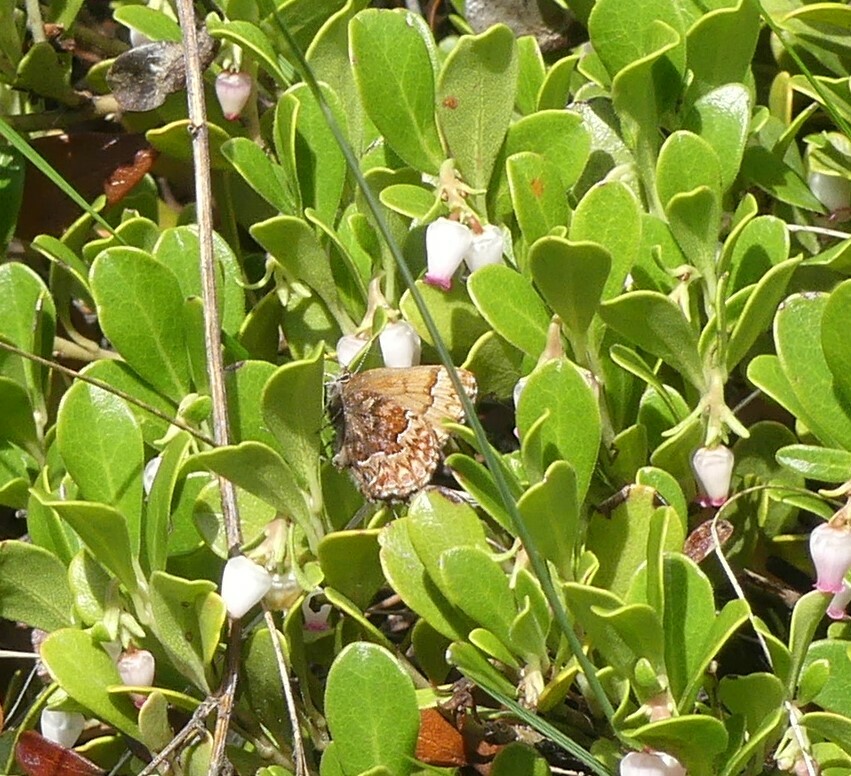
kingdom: Animalia
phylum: Arthropoda
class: Insecta
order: Lepidoptera
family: Lycaenidae
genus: Incisalia
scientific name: Incisalia eryphon
